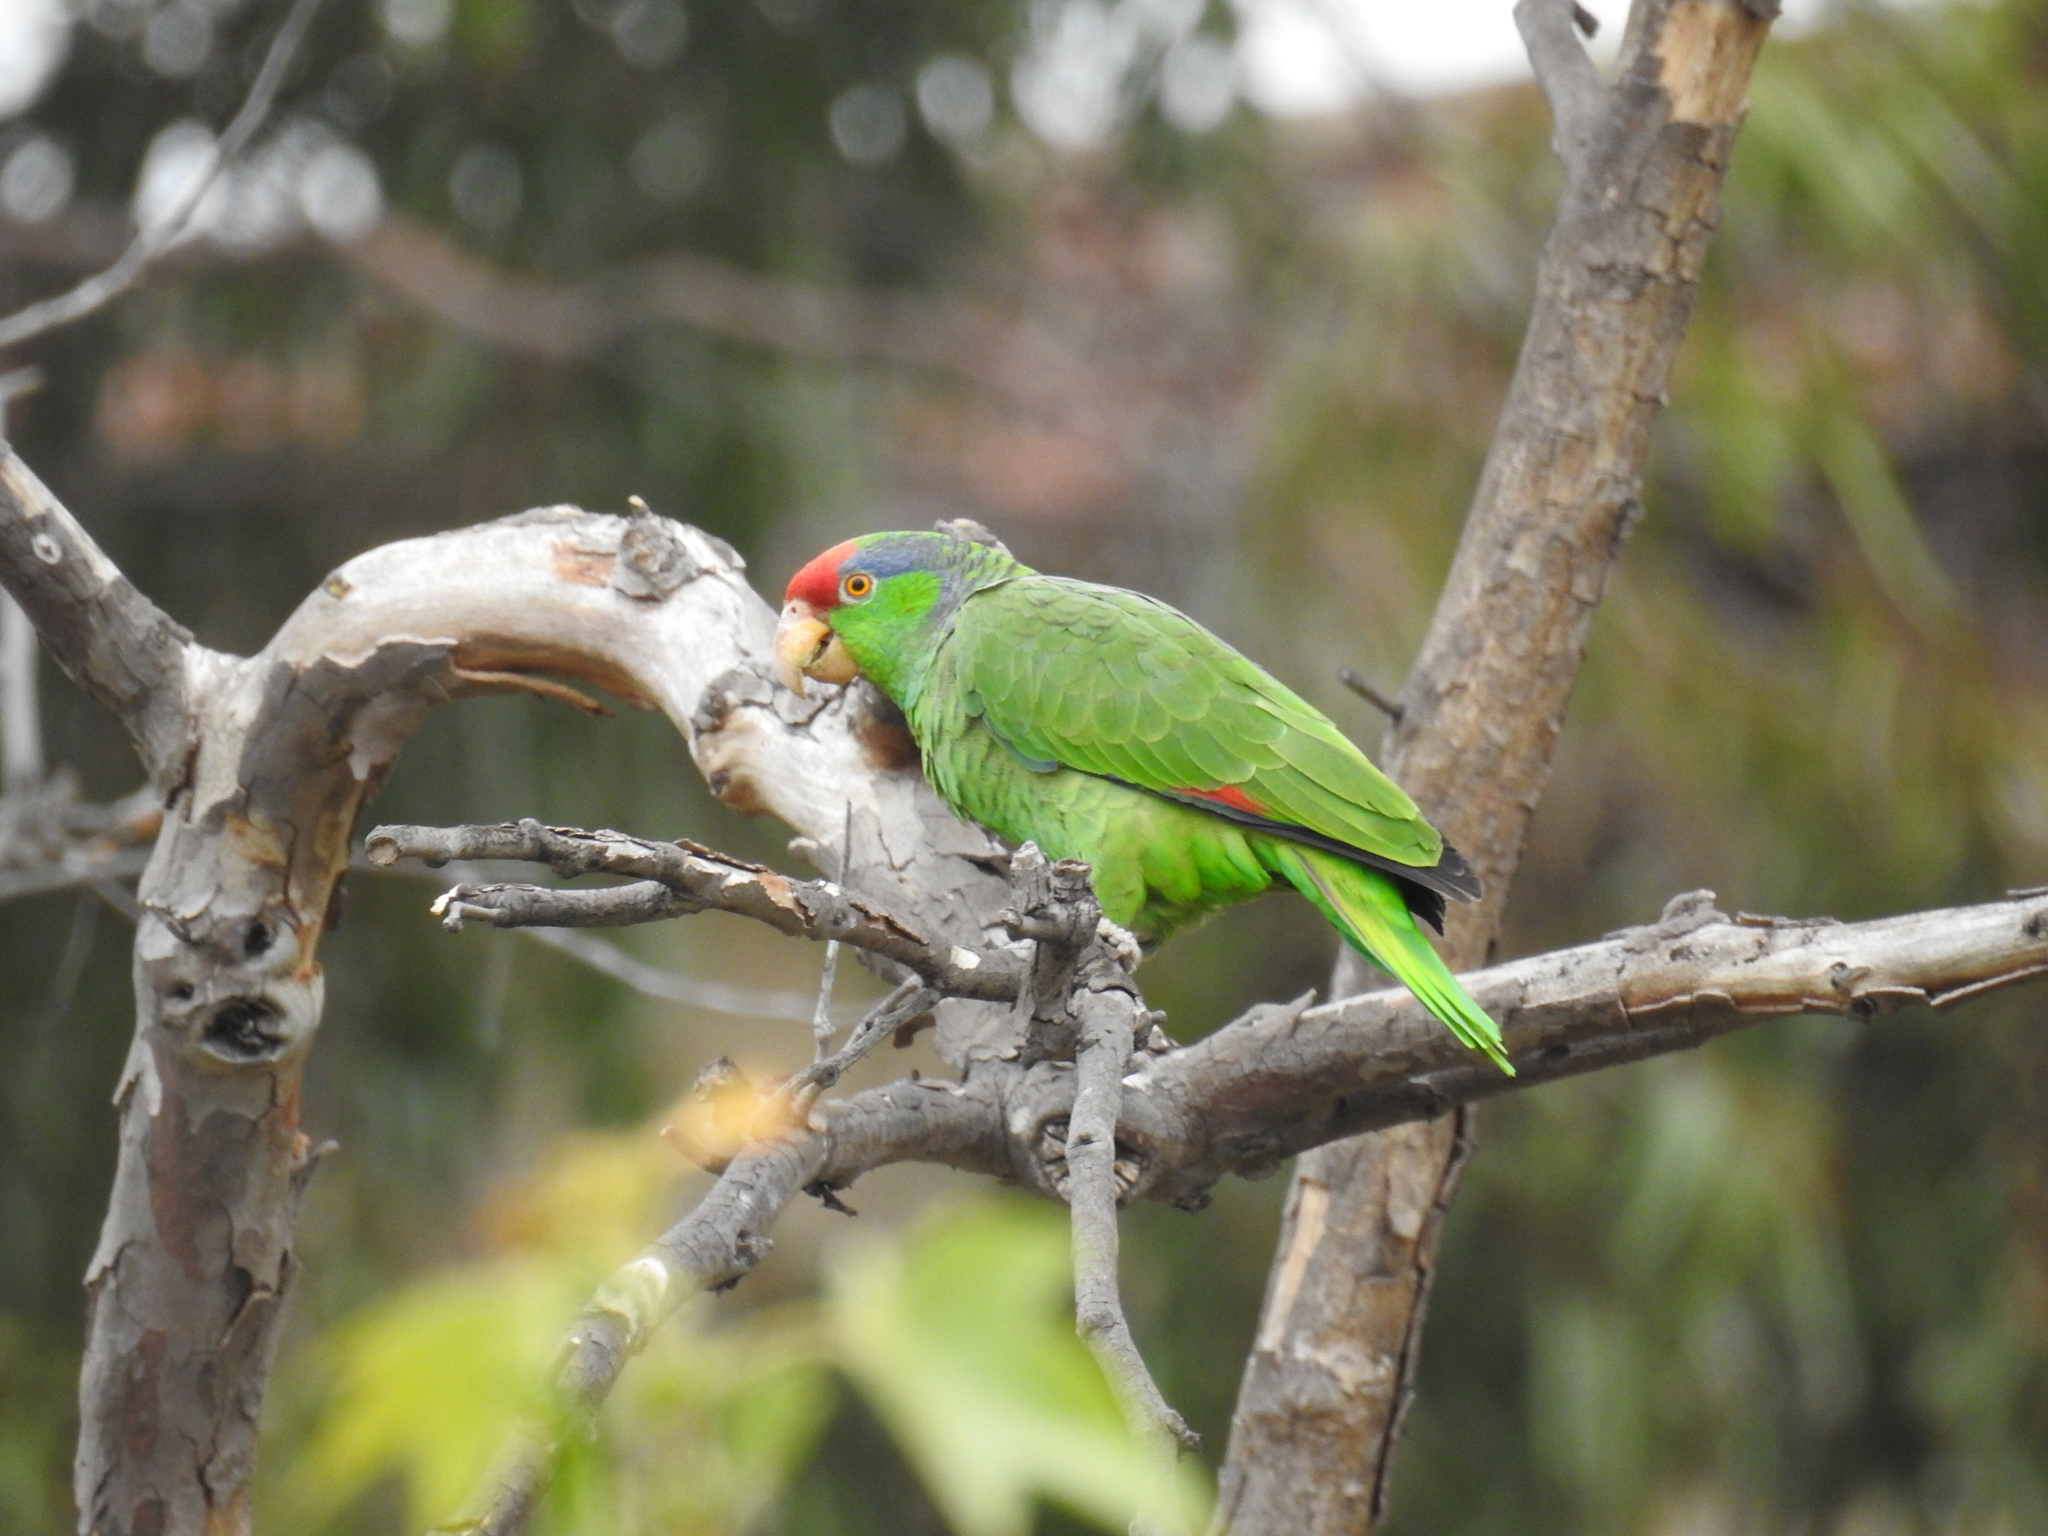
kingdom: Animalia
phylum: Chordata
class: Aves
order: Psittaciformes
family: Psittacidae
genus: Amazona
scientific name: Amazona viridigenalis
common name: Red-crowned amazon
